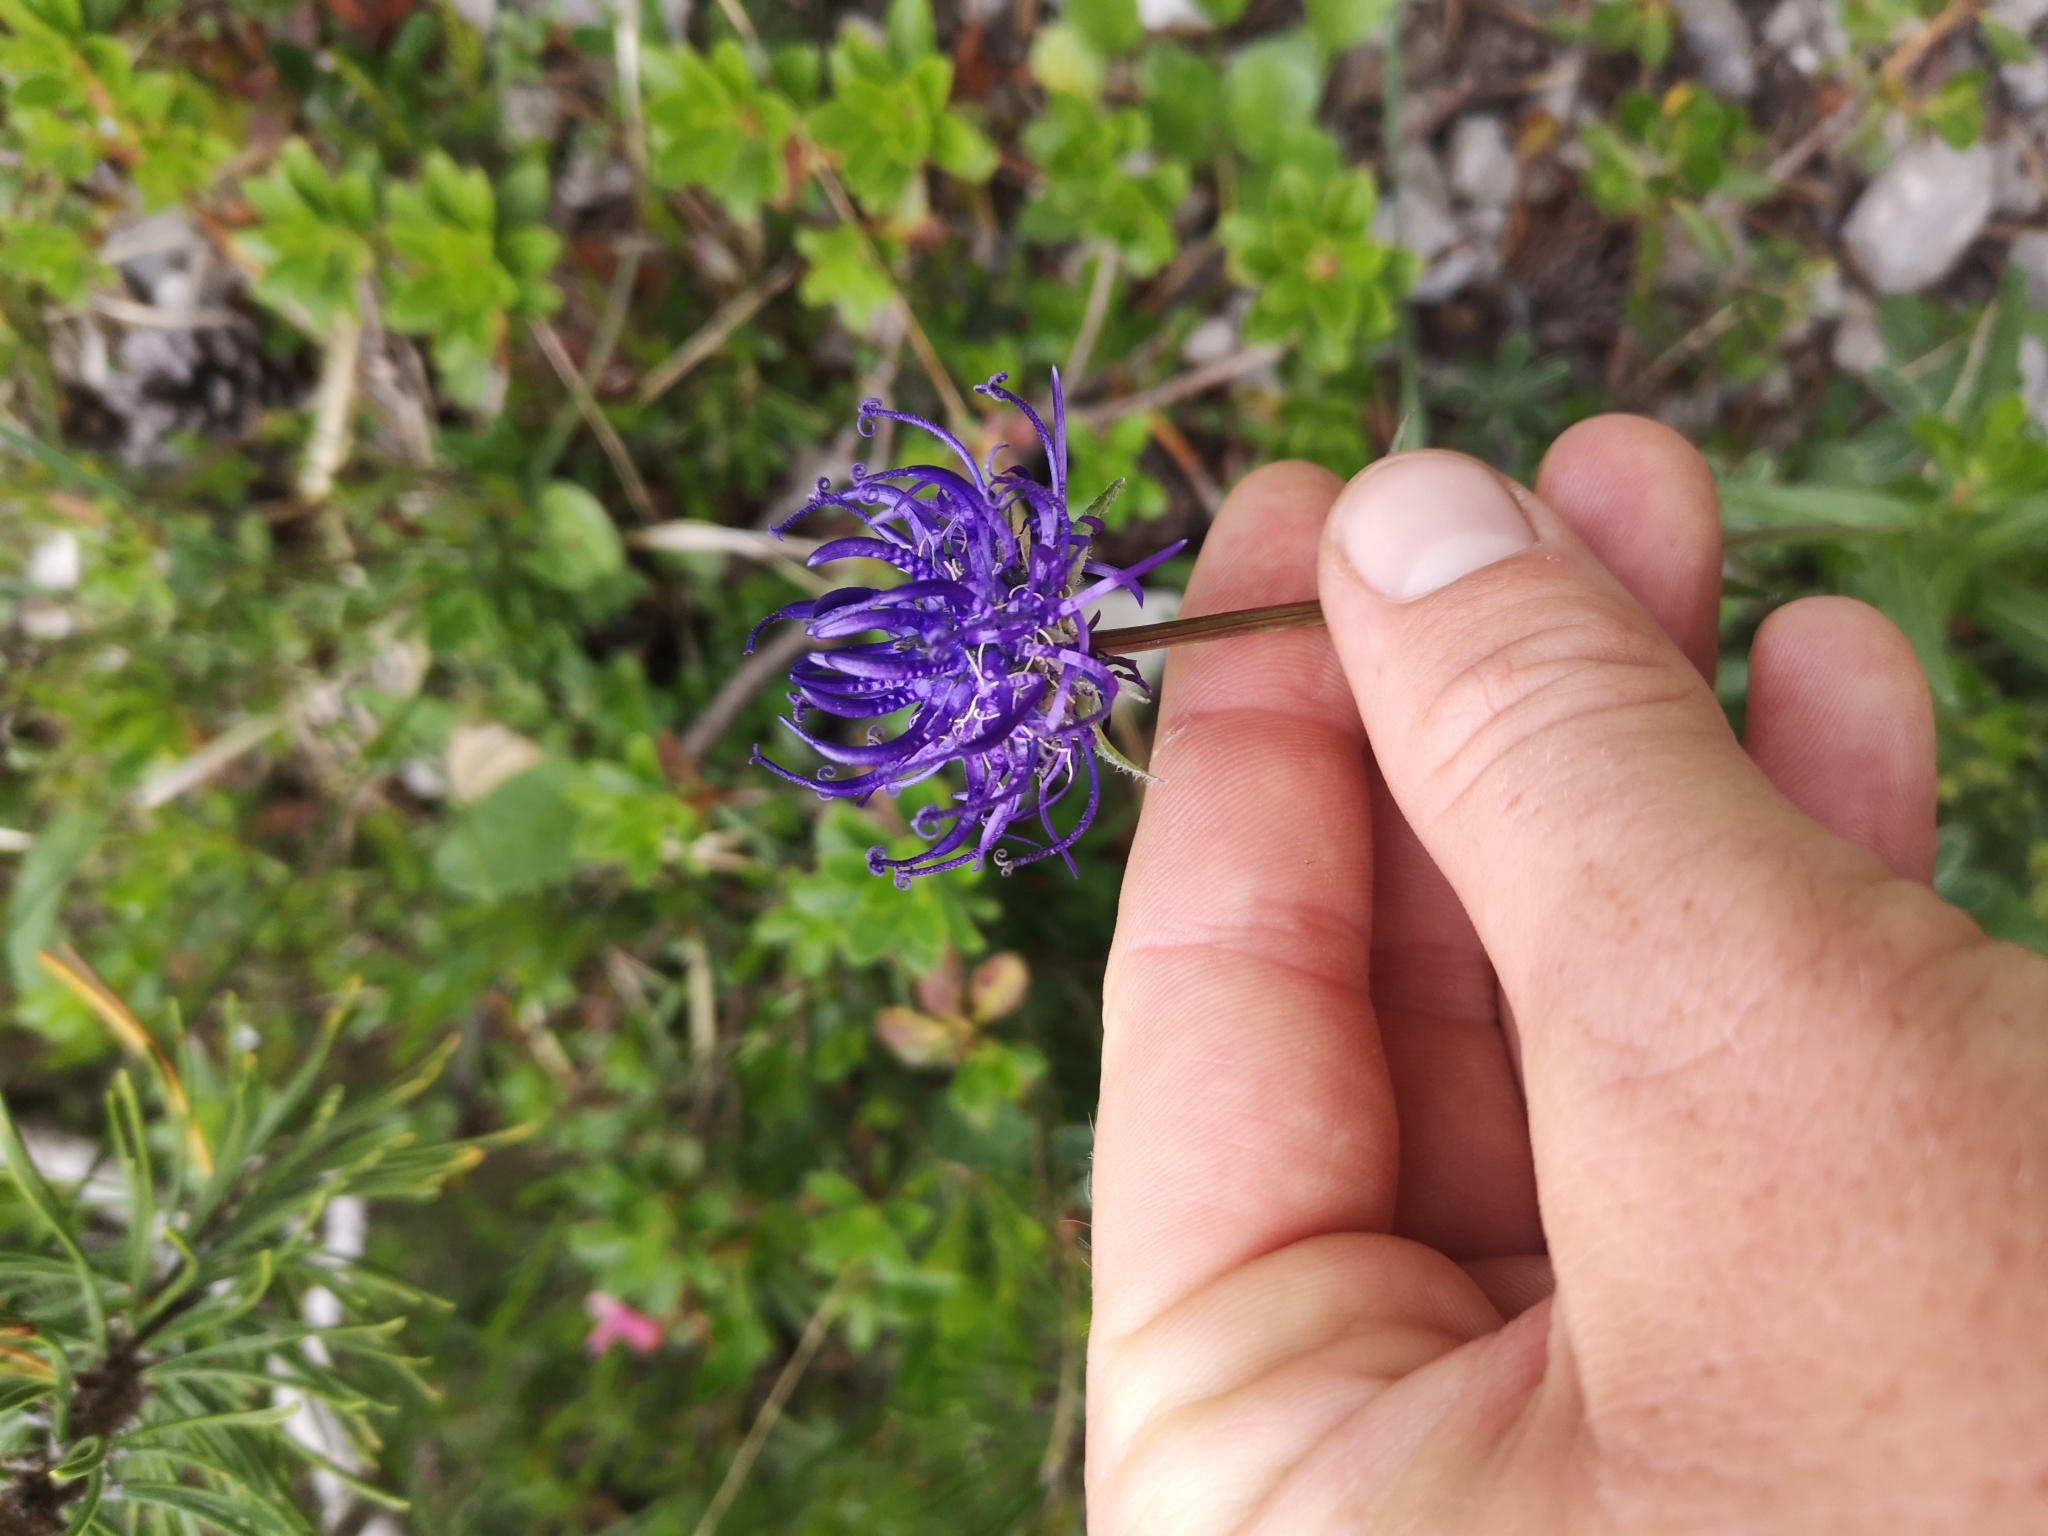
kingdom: Plantae
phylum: Tracheophyta
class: Magnoliopsida
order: Asterales
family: Campanulaceae
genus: Phyteuma
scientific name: Phyteuma orbiculare
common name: Round-headed rampion
